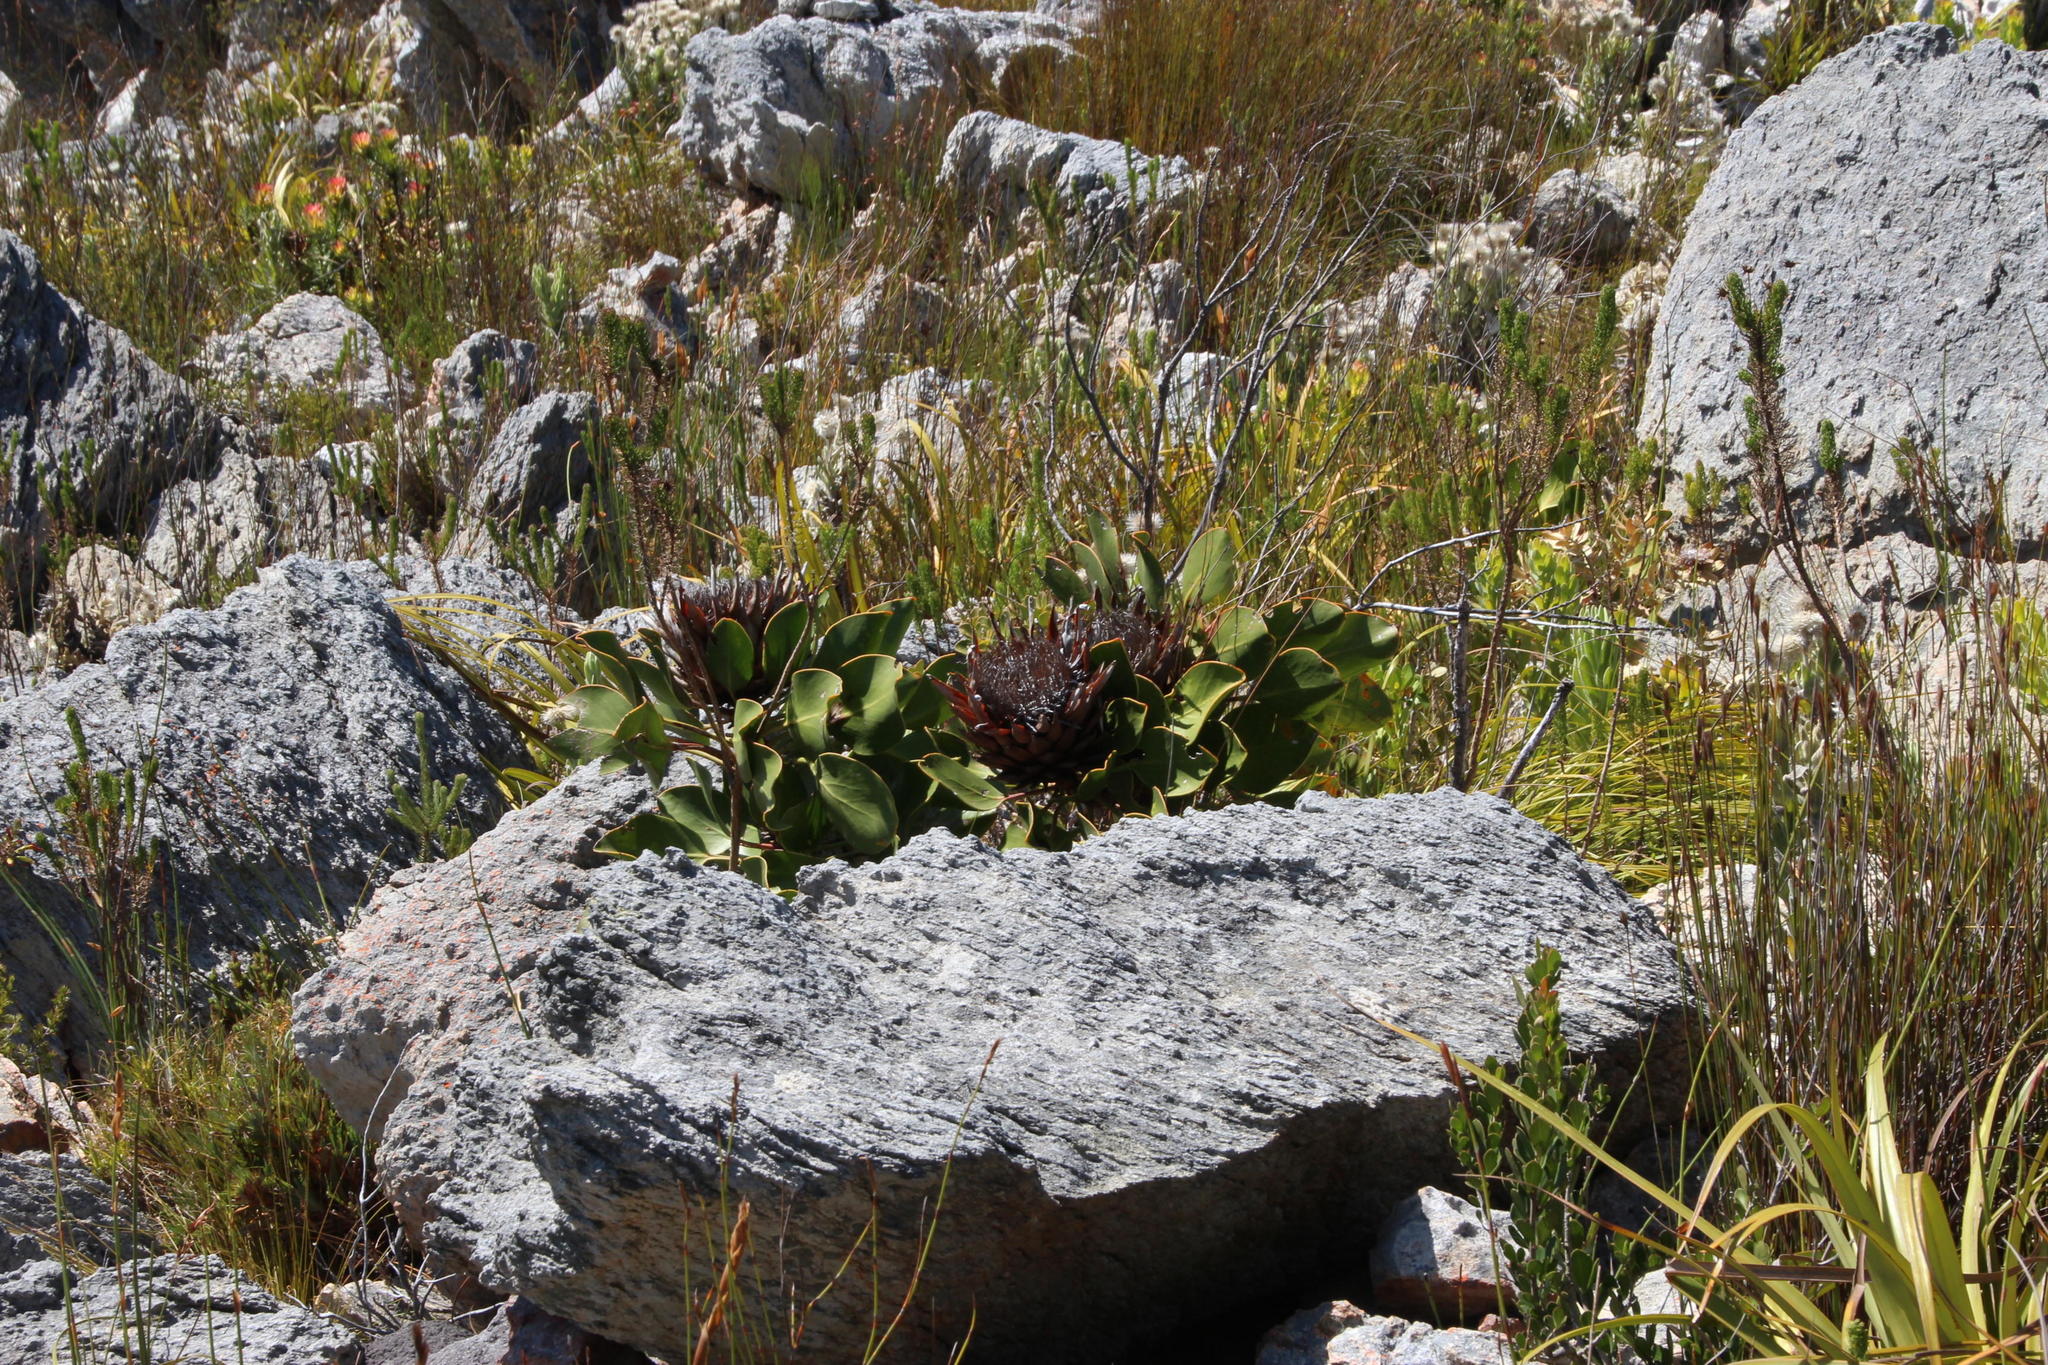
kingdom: Plantae
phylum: Tracheophyta
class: Magnoliopsida
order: Proteales
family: Proteaceae
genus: Protea
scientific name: Protea cynaroides
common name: King protea
